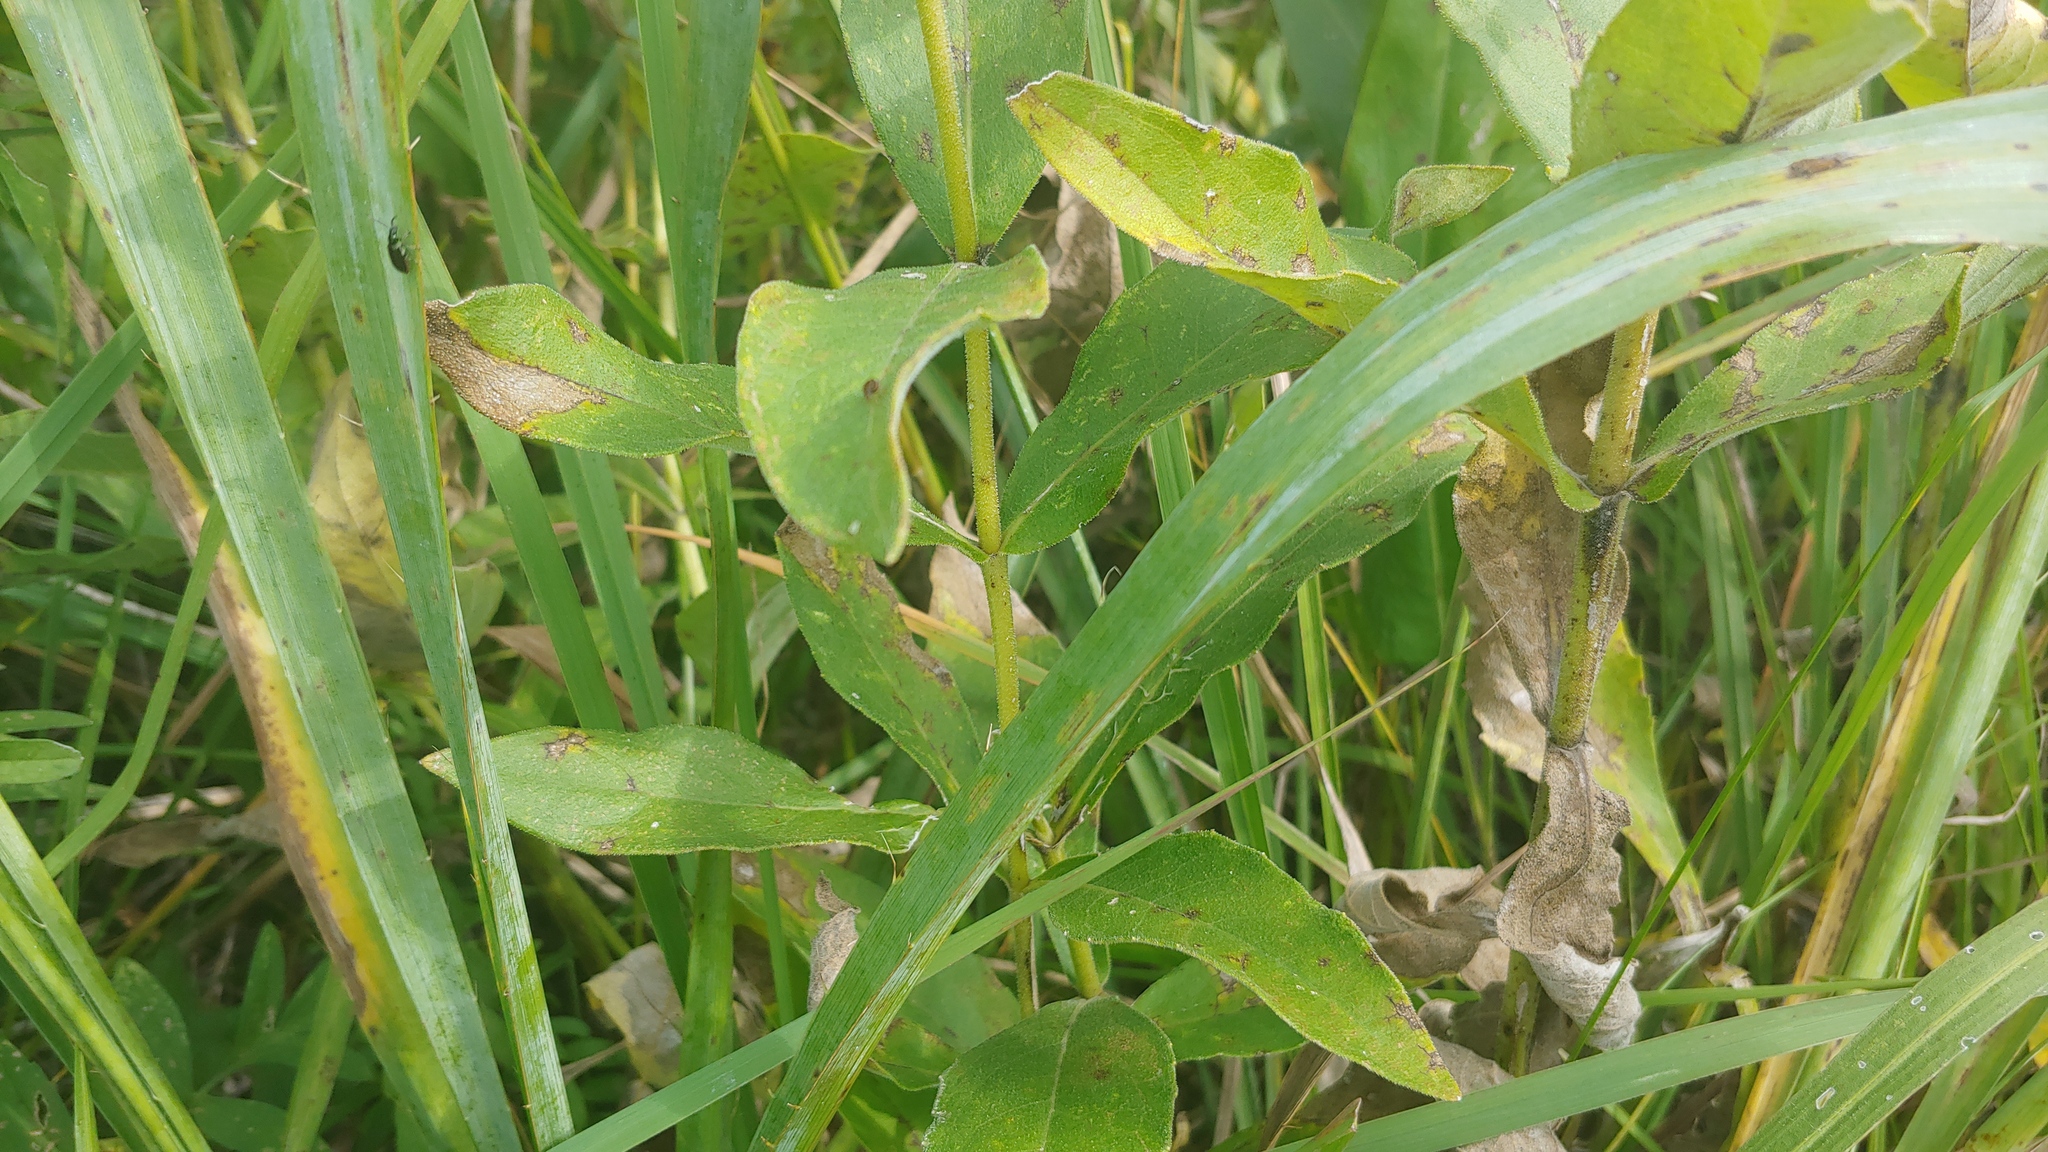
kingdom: Plantae
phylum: Tracheophyta
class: Magnoliopsida
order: Asterales
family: Asteraceae
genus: Silphium
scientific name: Silphium integrifolium
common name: Whole-leaf rosinweed
